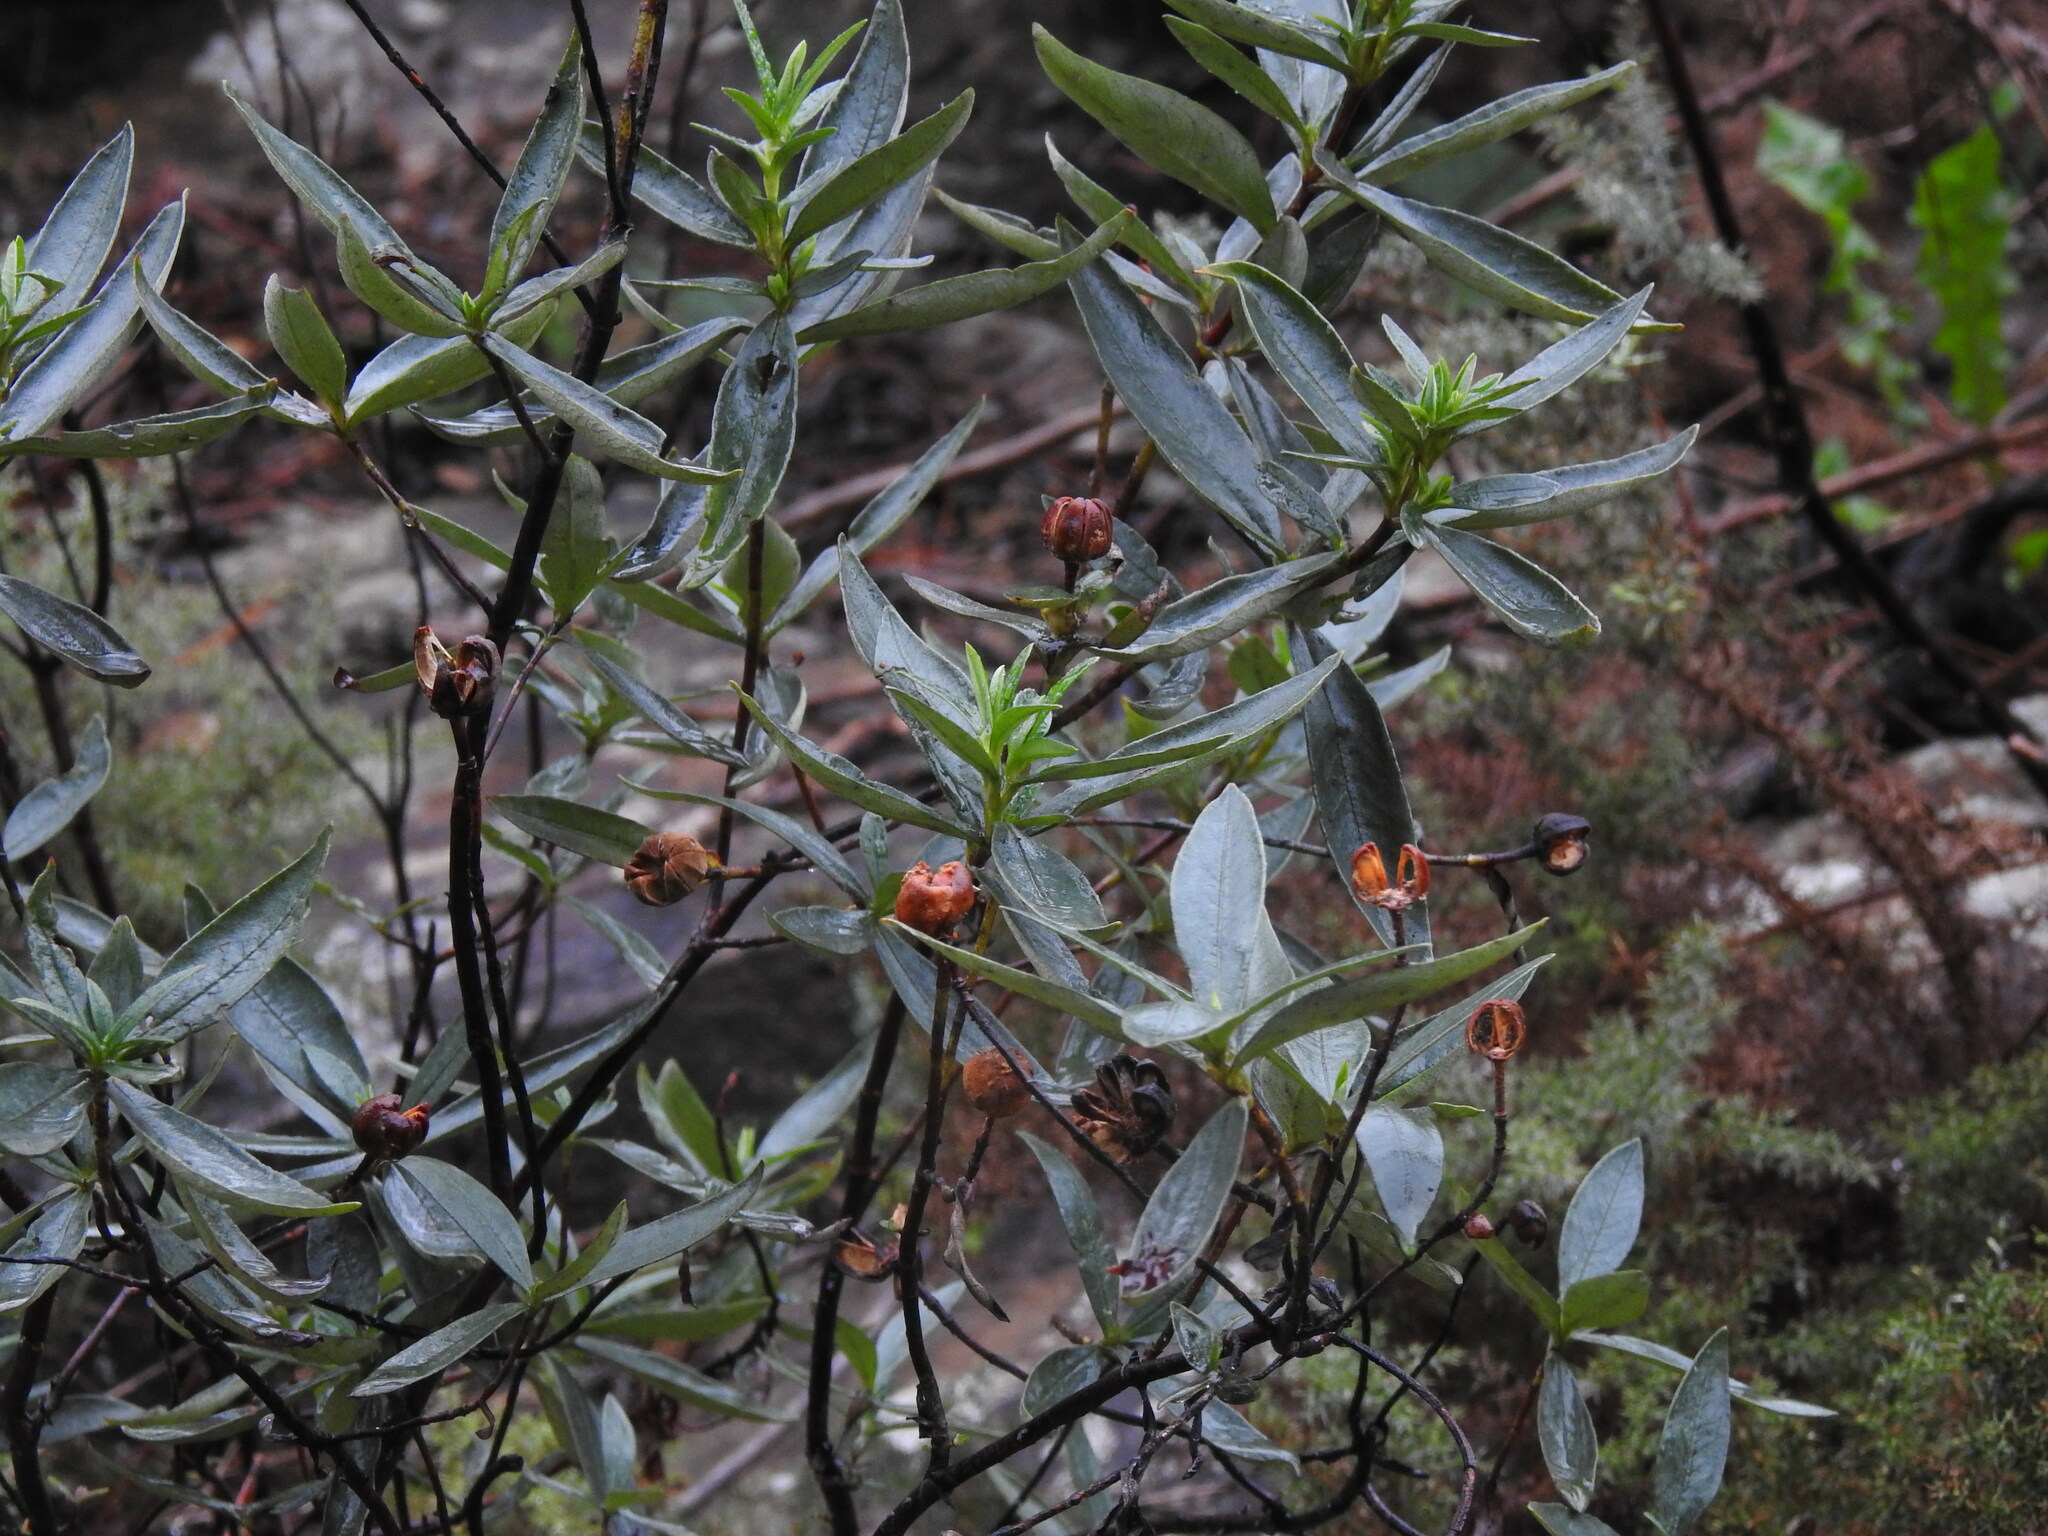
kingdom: Plantae
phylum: Tracheophyta
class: Magnoliopsida
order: Malvales
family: Cistaceae
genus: Cistus
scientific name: Cistus ladanifer
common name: Common gum cistus
